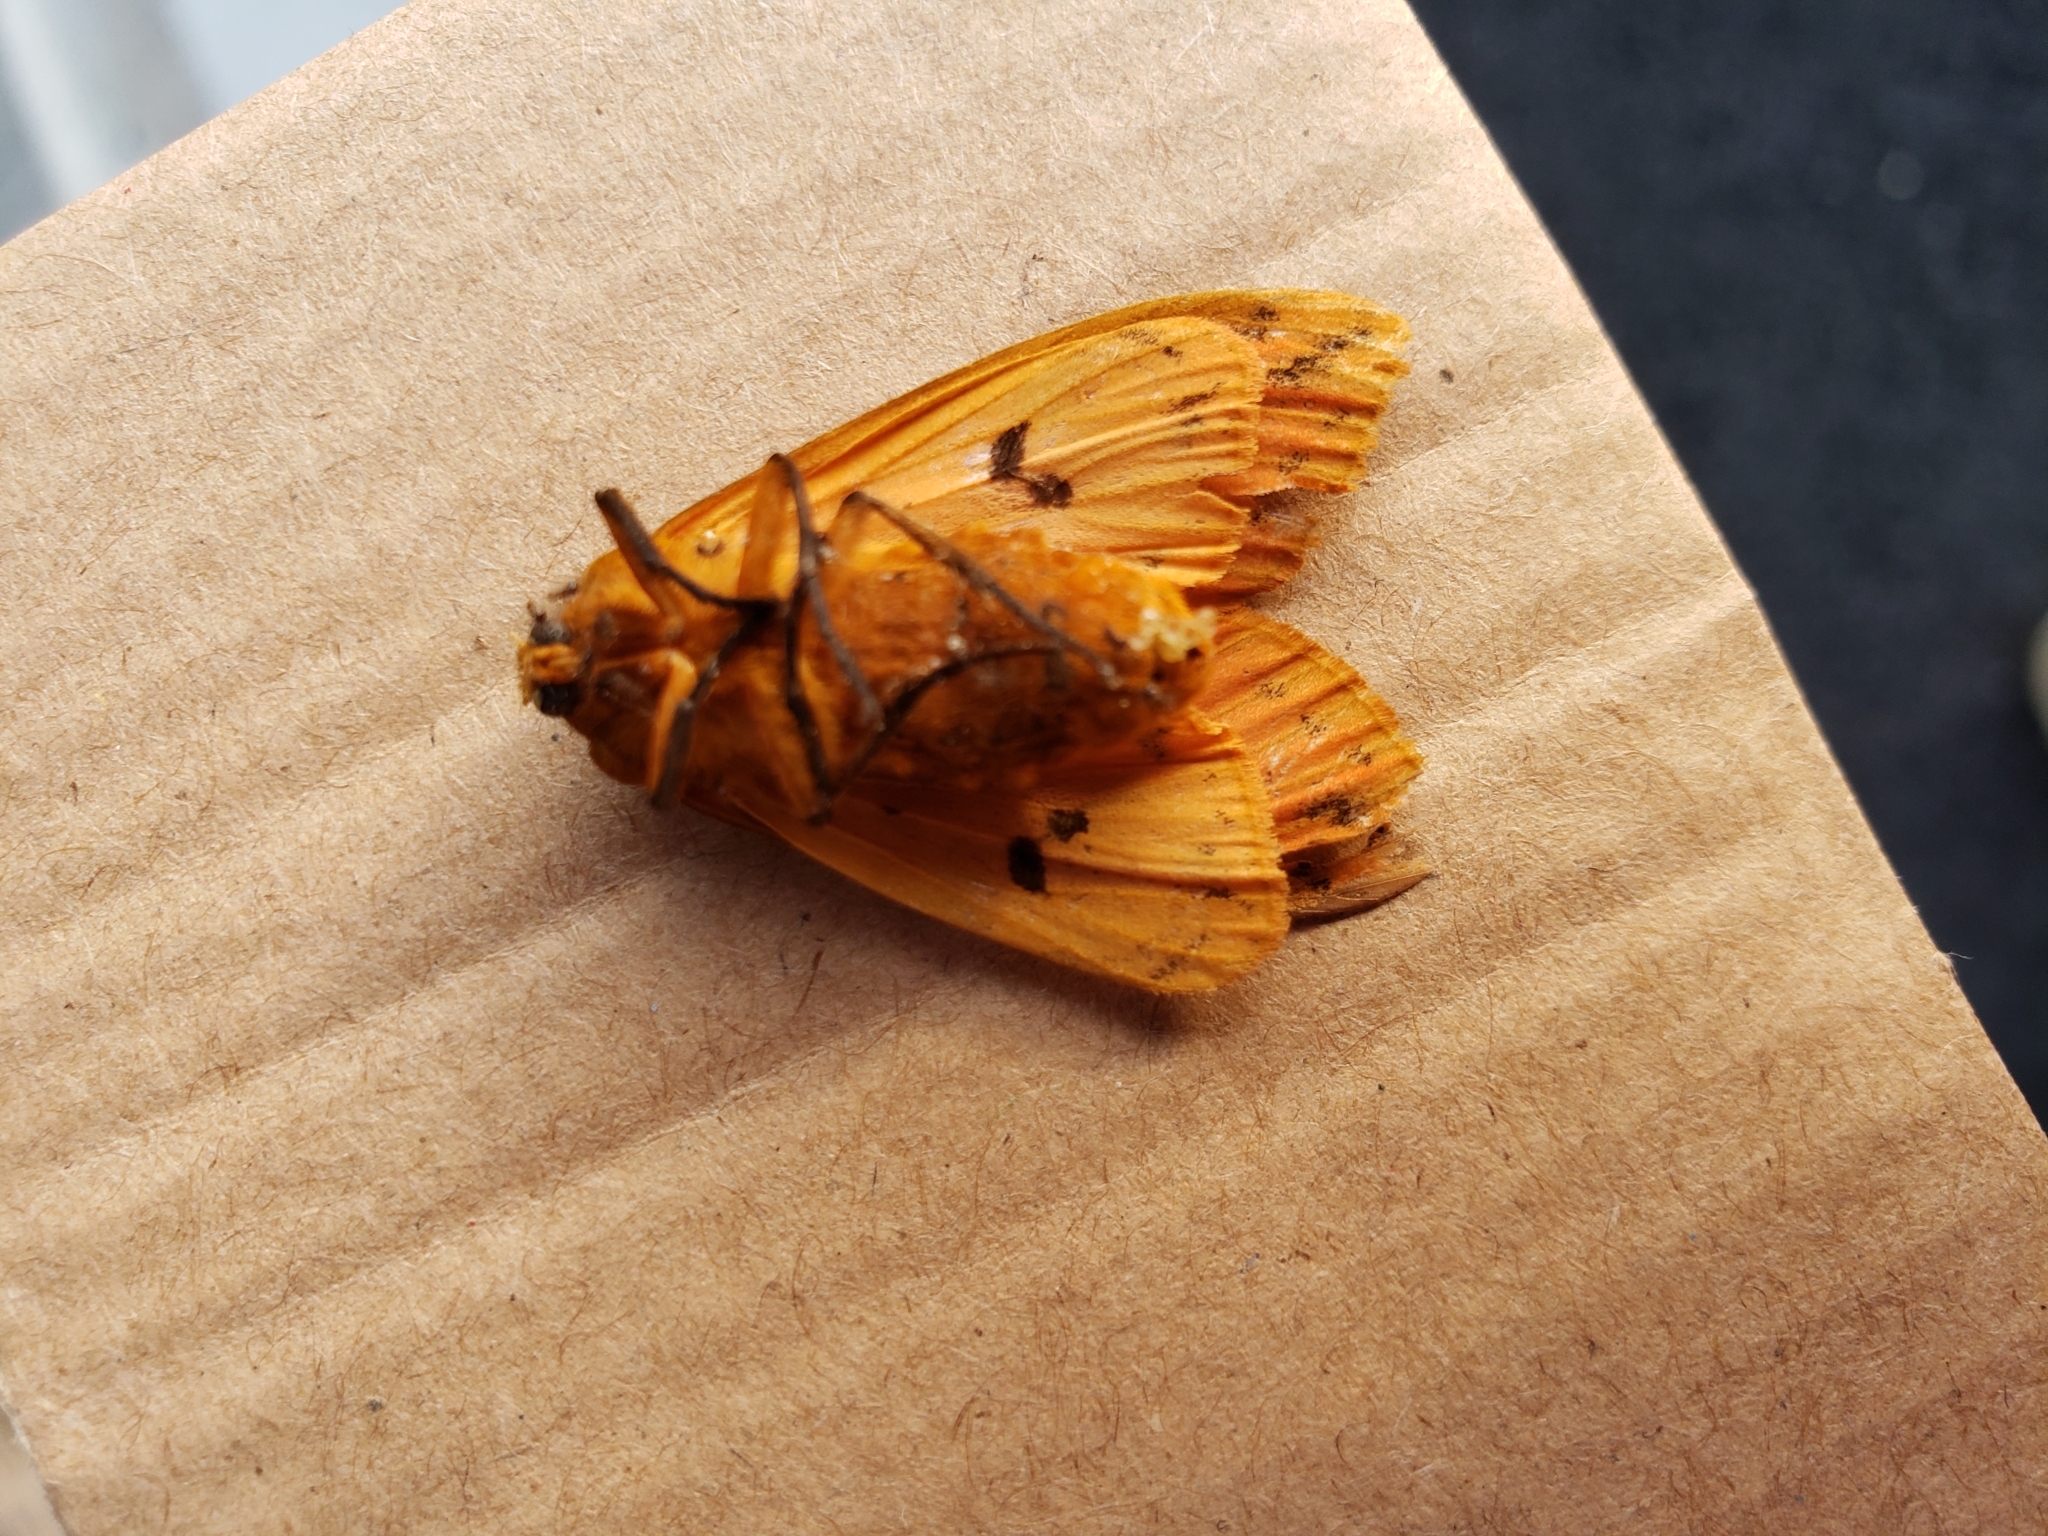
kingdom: Animalia
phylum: Arthropoda
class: Insecta
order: Lepidoptera
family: Erebidae
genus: Pyrrharctia
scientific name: Pyrrharctia isabella
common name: Isabella tiger moth
